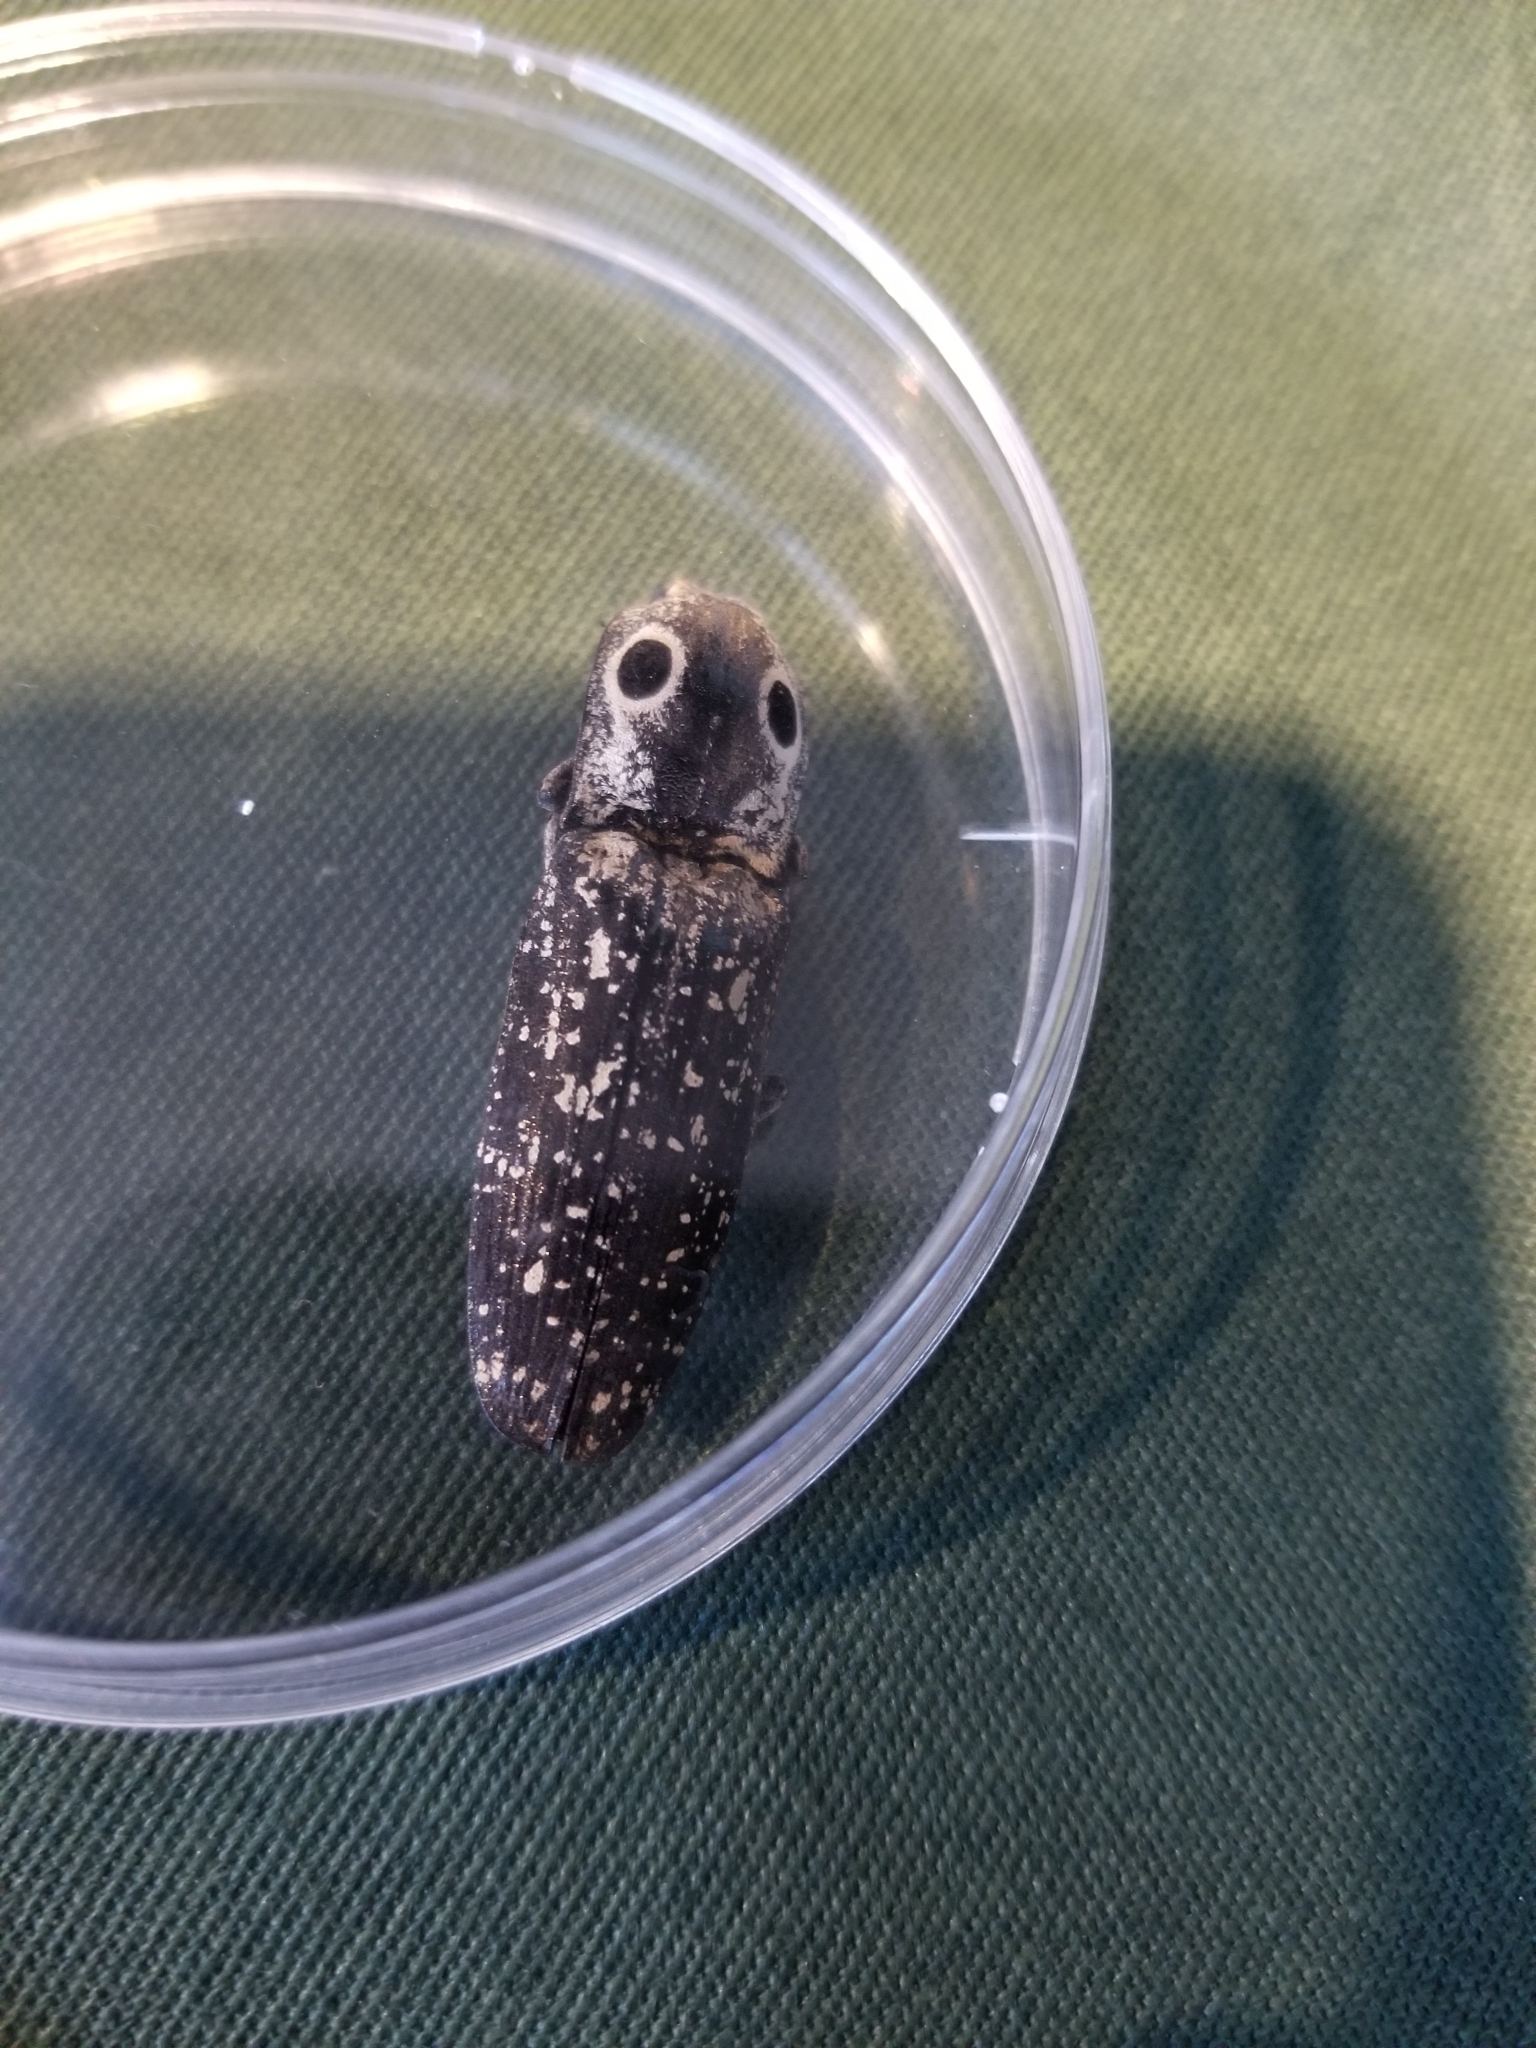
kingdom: Animalia
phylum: Arthropoda
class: Insecta
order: Coleoptera
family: Elateridae
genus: Alaus
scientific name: Alaus oculatus
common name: Eastern eyed click beetle
